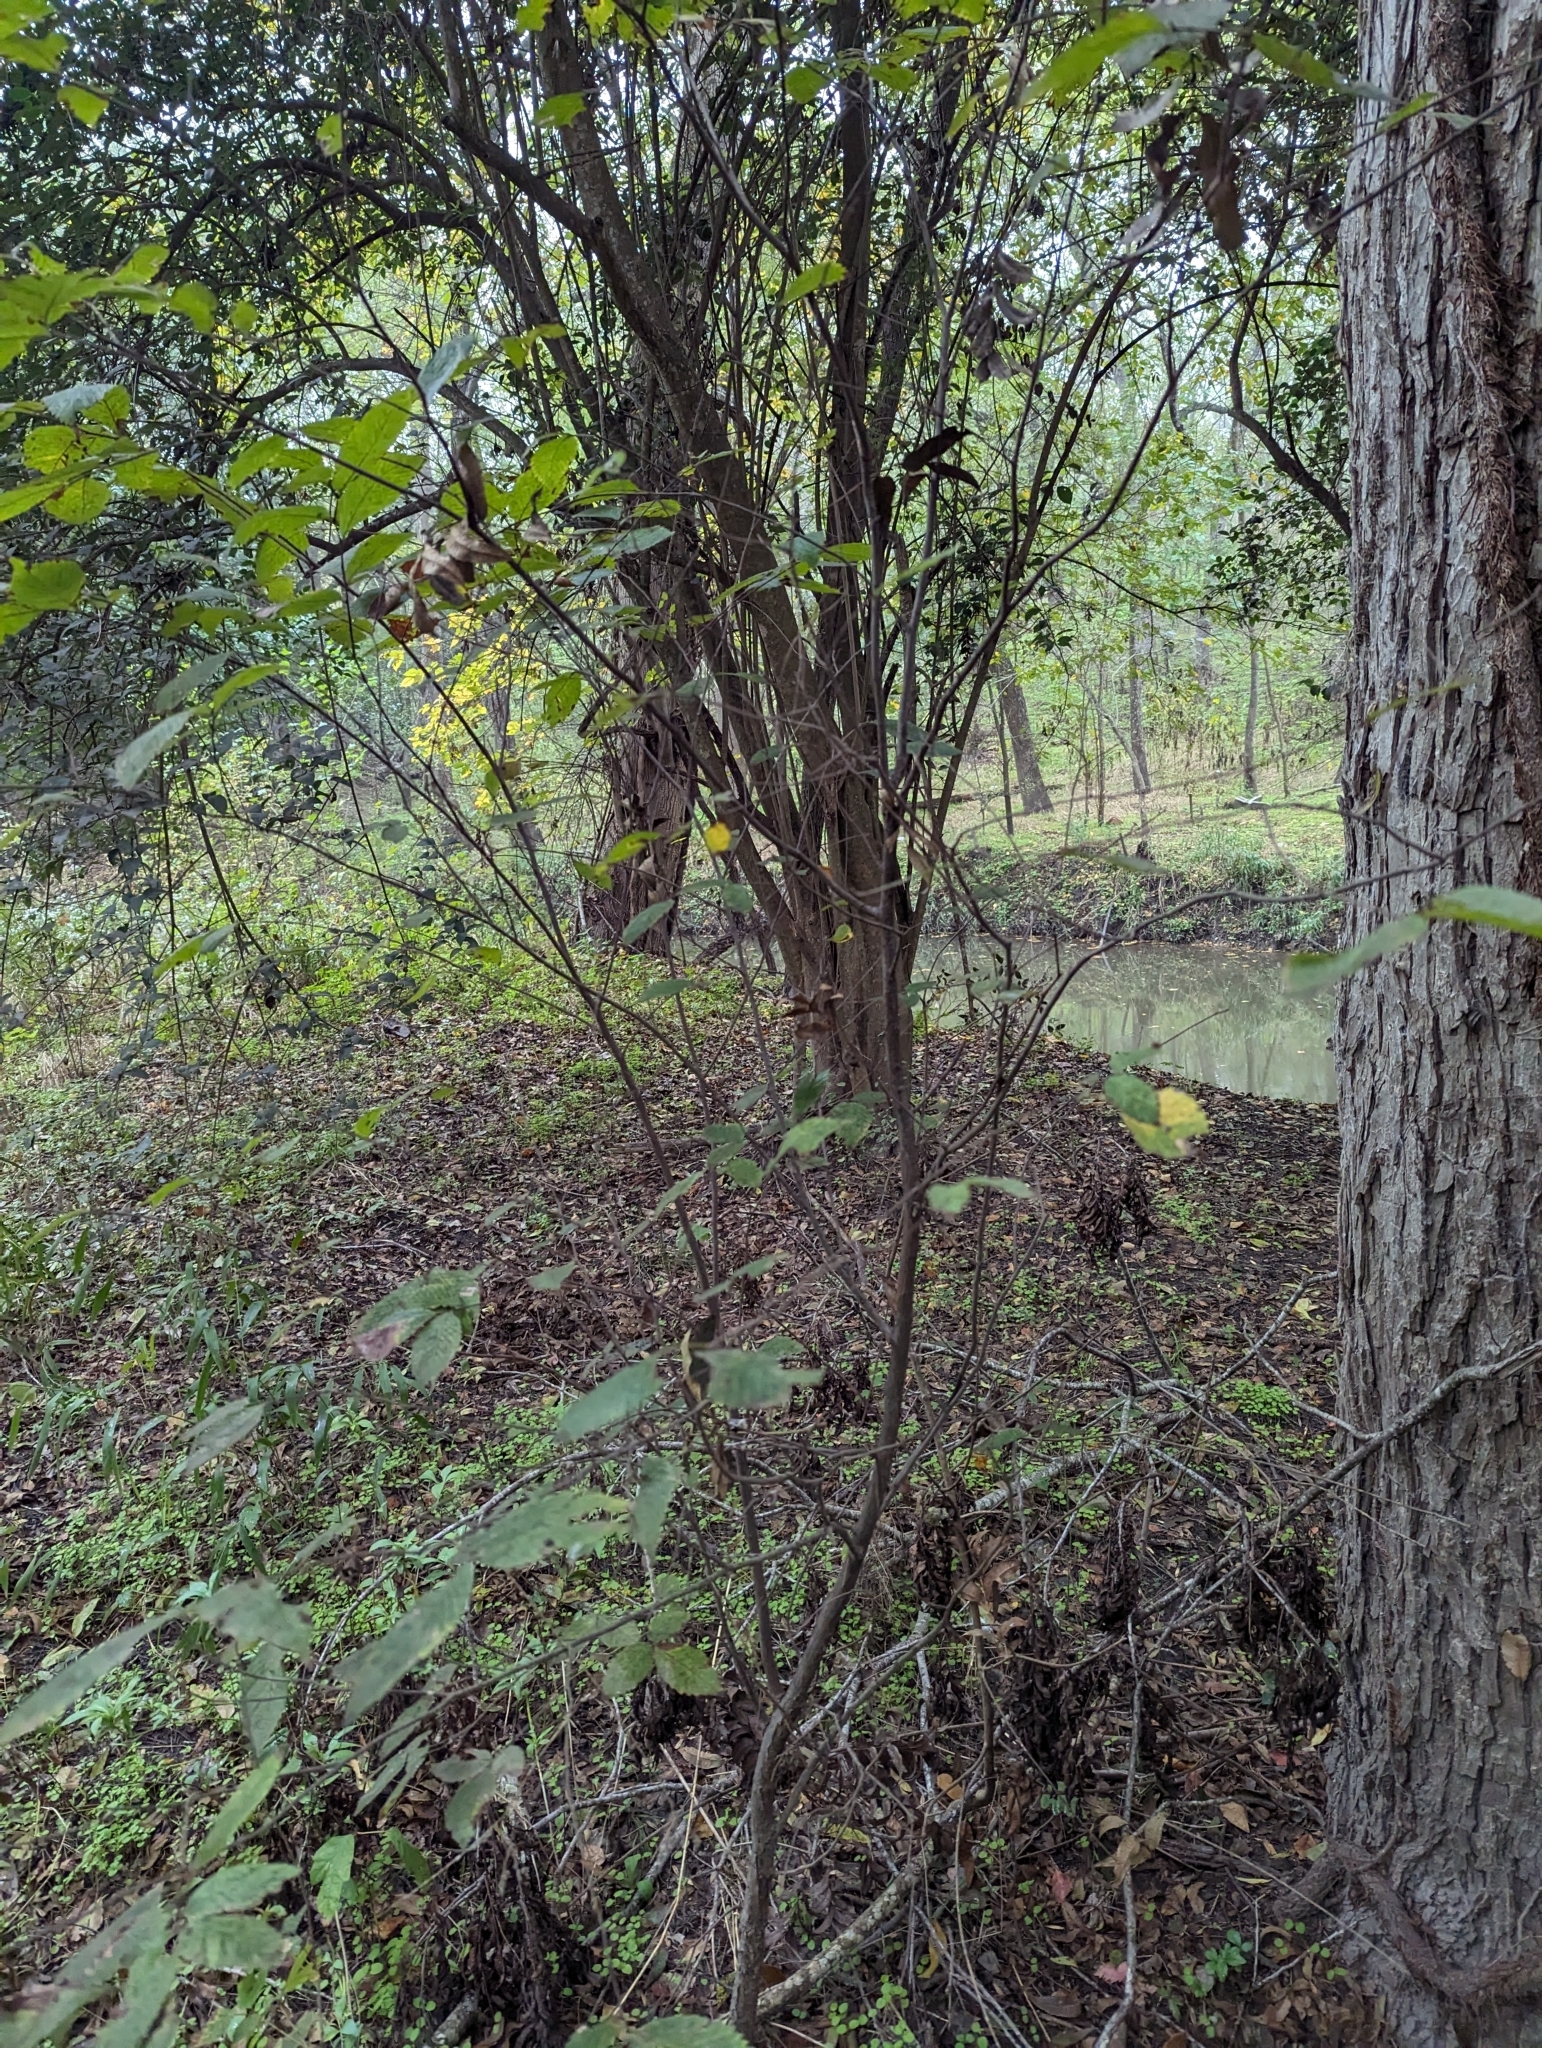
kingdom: Plantae
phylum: Tracheophyta
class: Magnoliopsida
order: Rosales
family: Ulmaceae
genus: Ulmus
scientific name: Ulmus americana
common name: American elm
